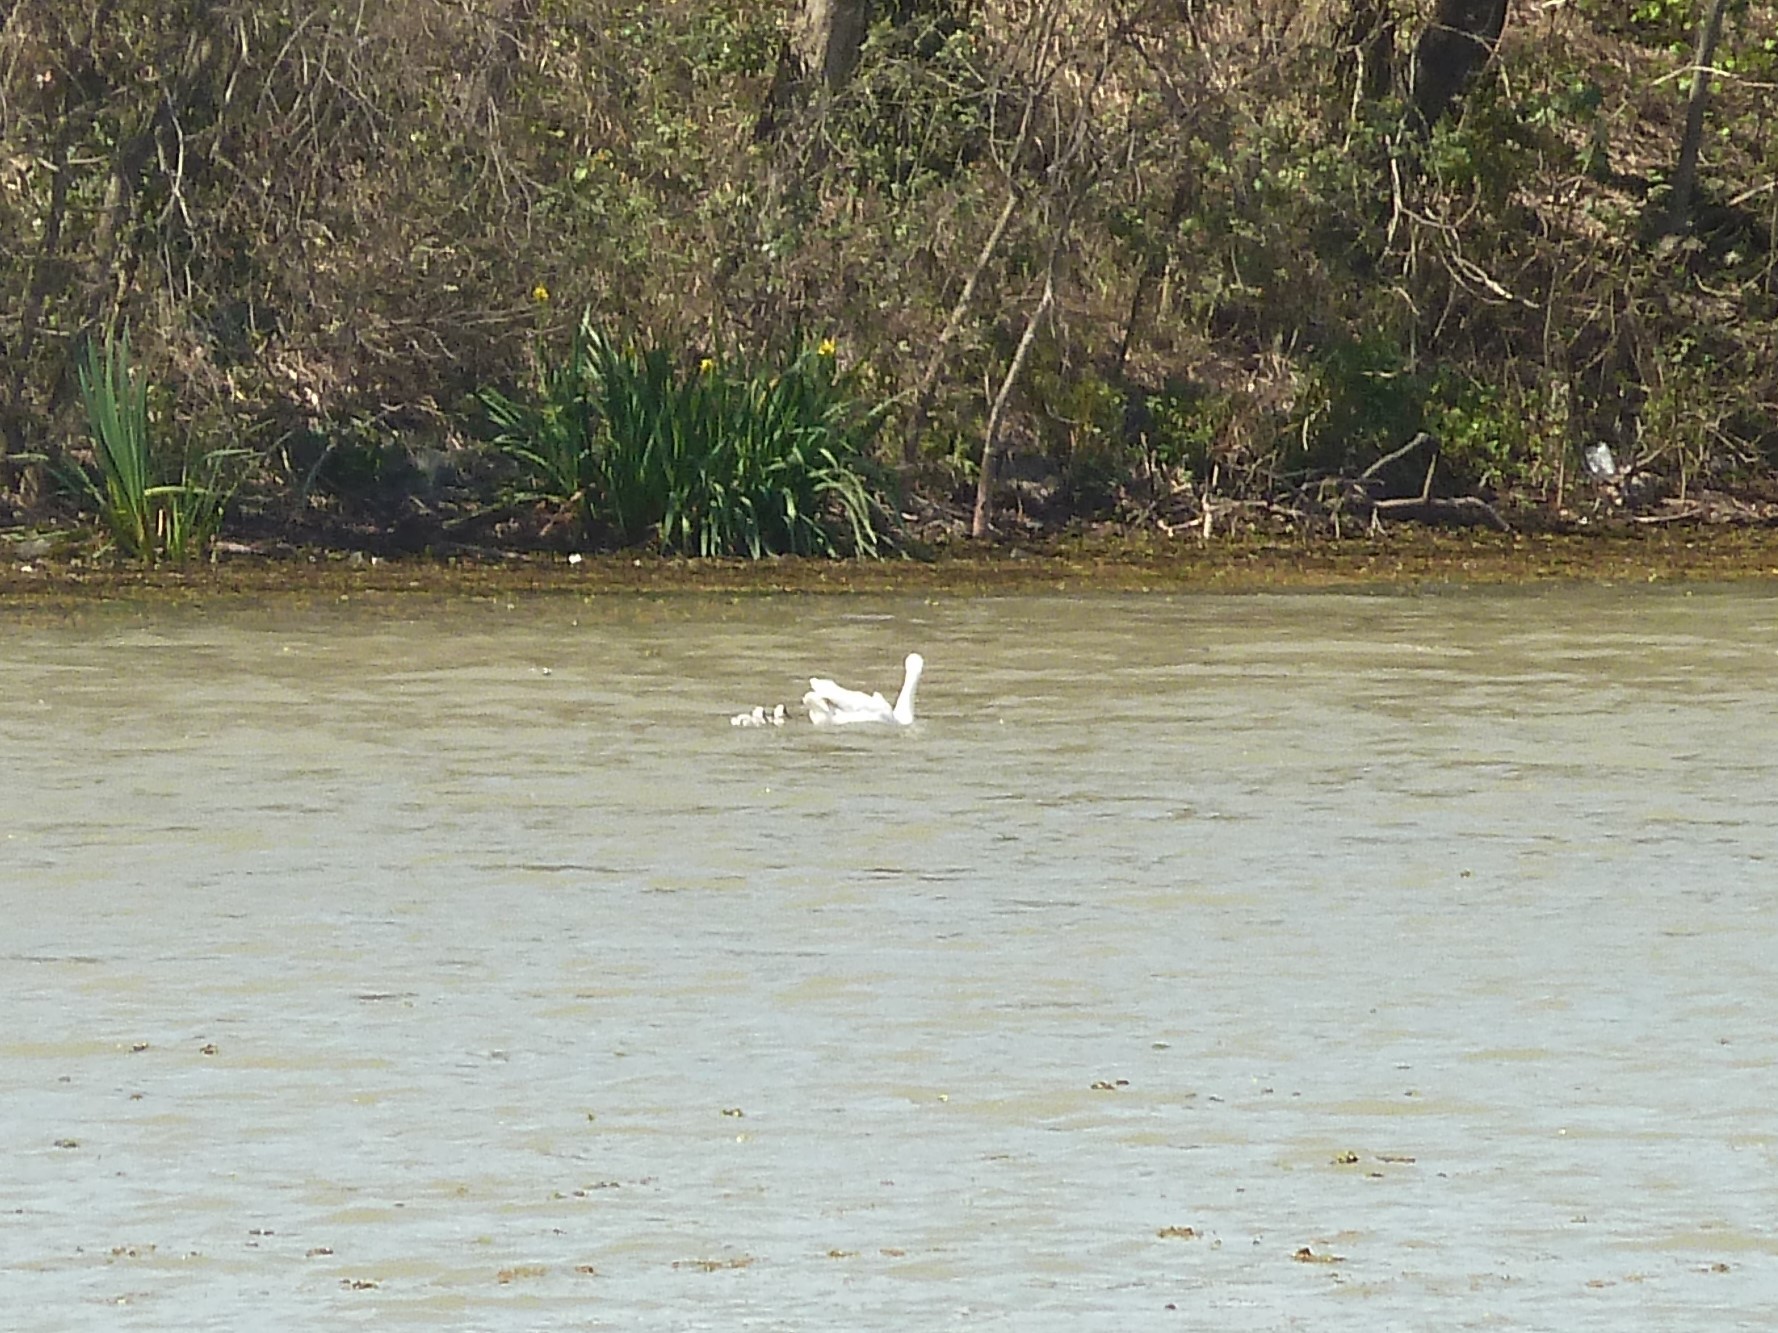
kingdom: Animalia
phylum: Chordata
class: Aves
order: Anseriformes
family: Anatidae
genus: Coscoroba
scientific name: Coscoroba coscoroba
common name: Coscoroba swan
